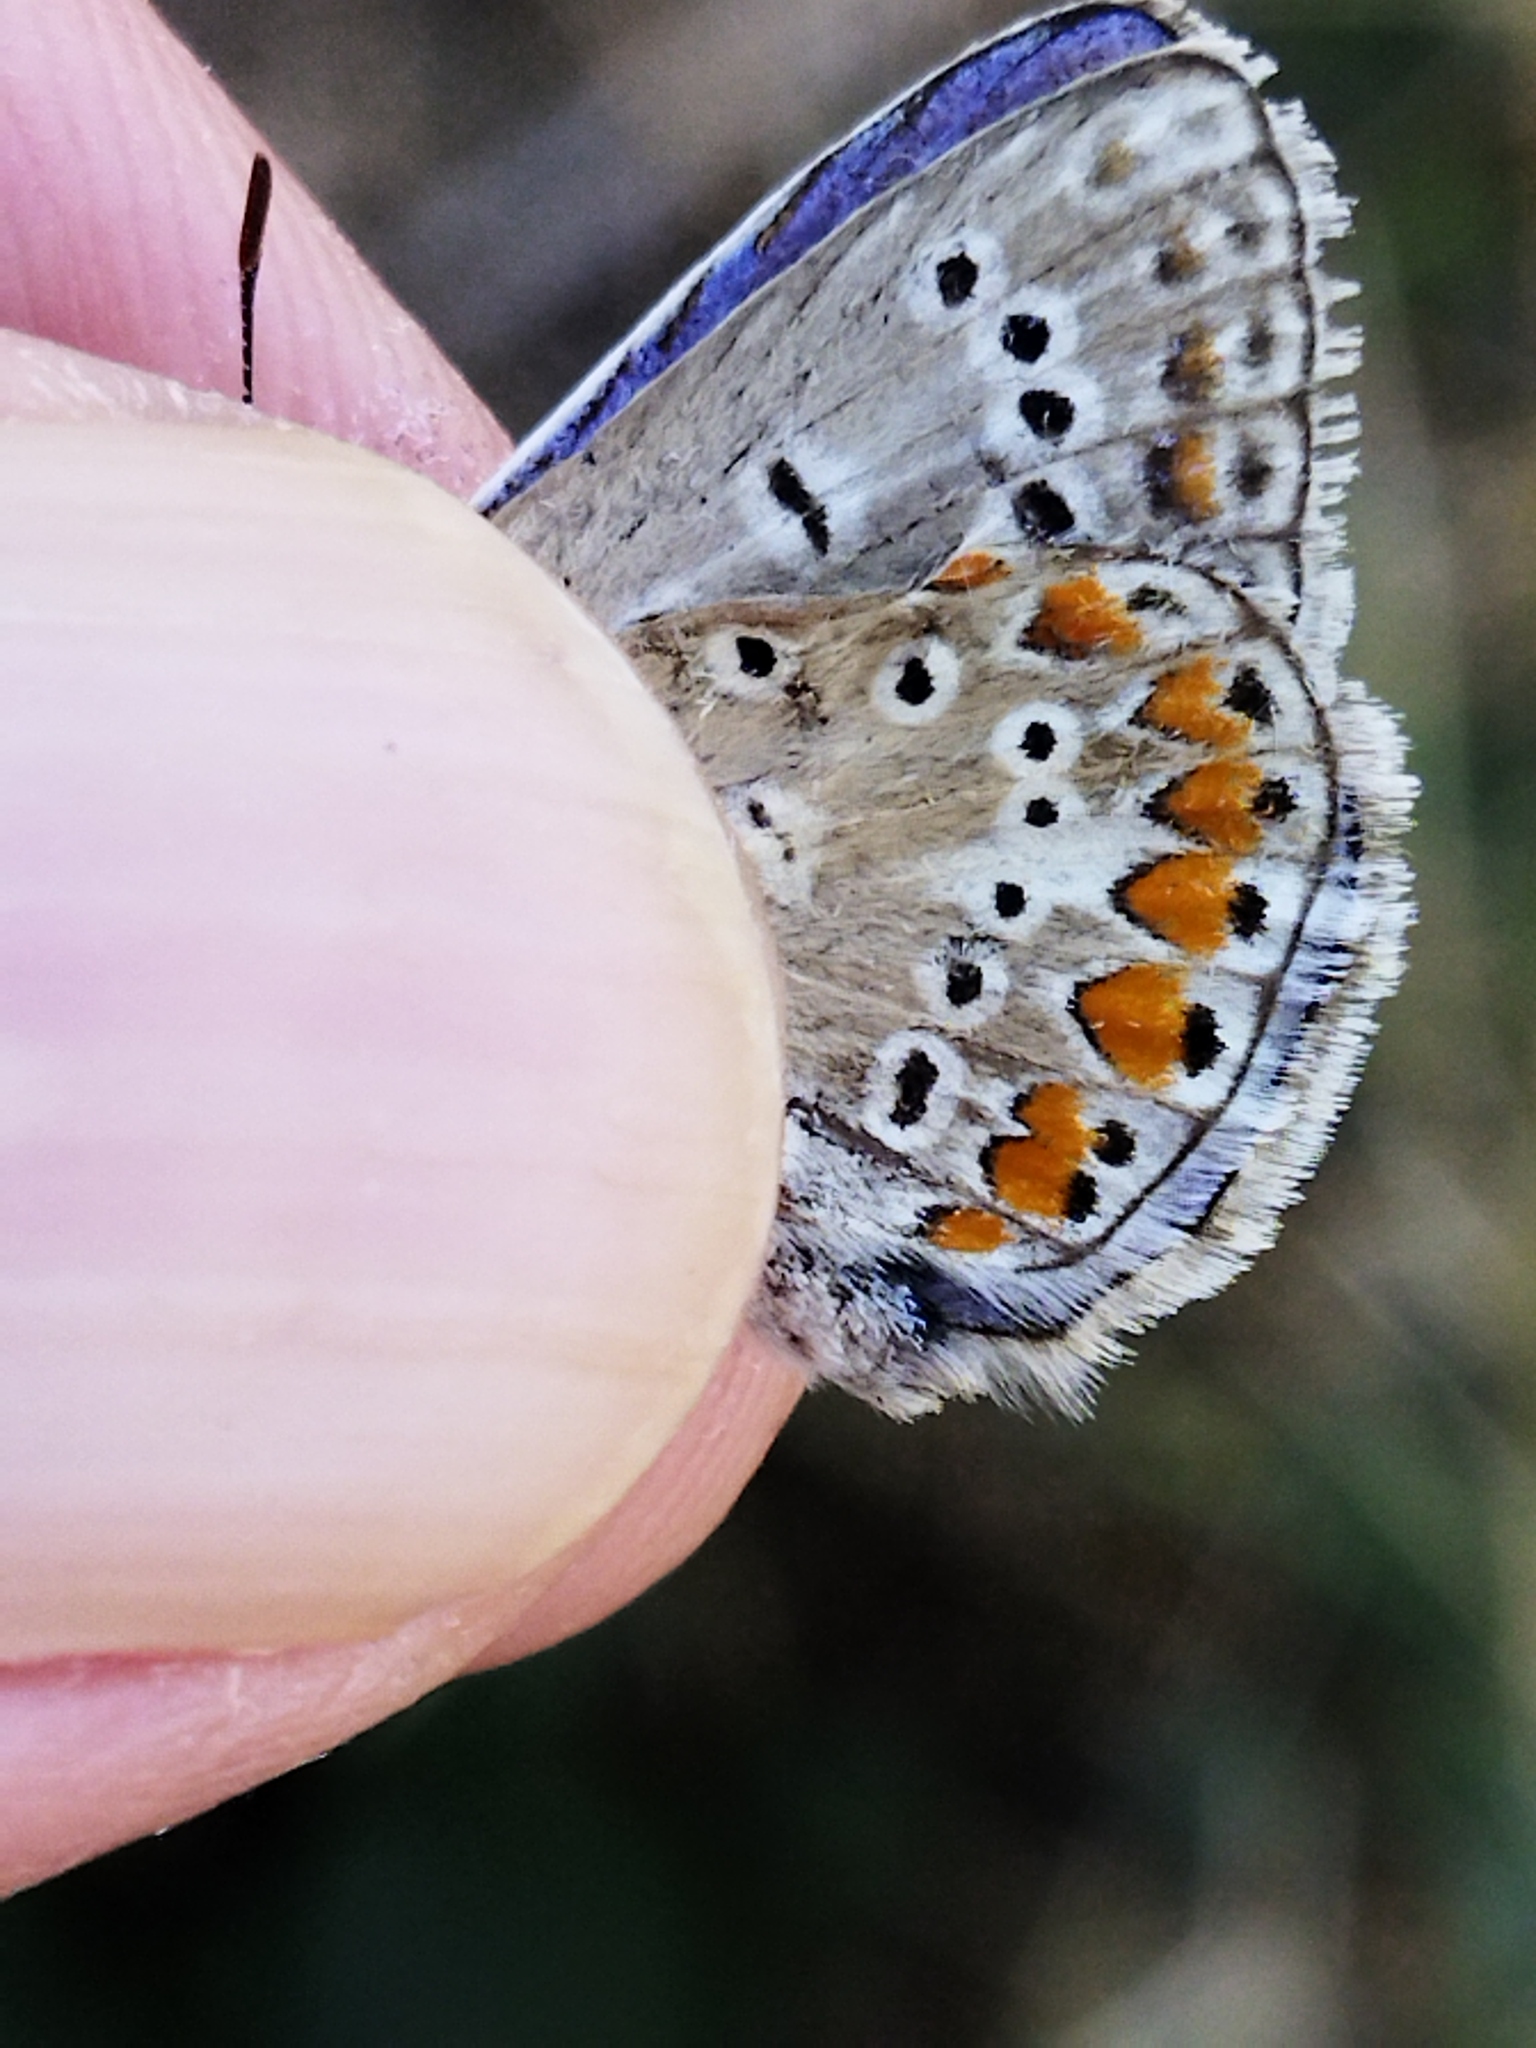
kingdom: Animalia
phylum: Arthropoda
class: Insecta
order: Lepidoptera
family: Lycaenidae
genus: Polyommatus
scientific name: Polyommatus icarus
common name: Common blue
